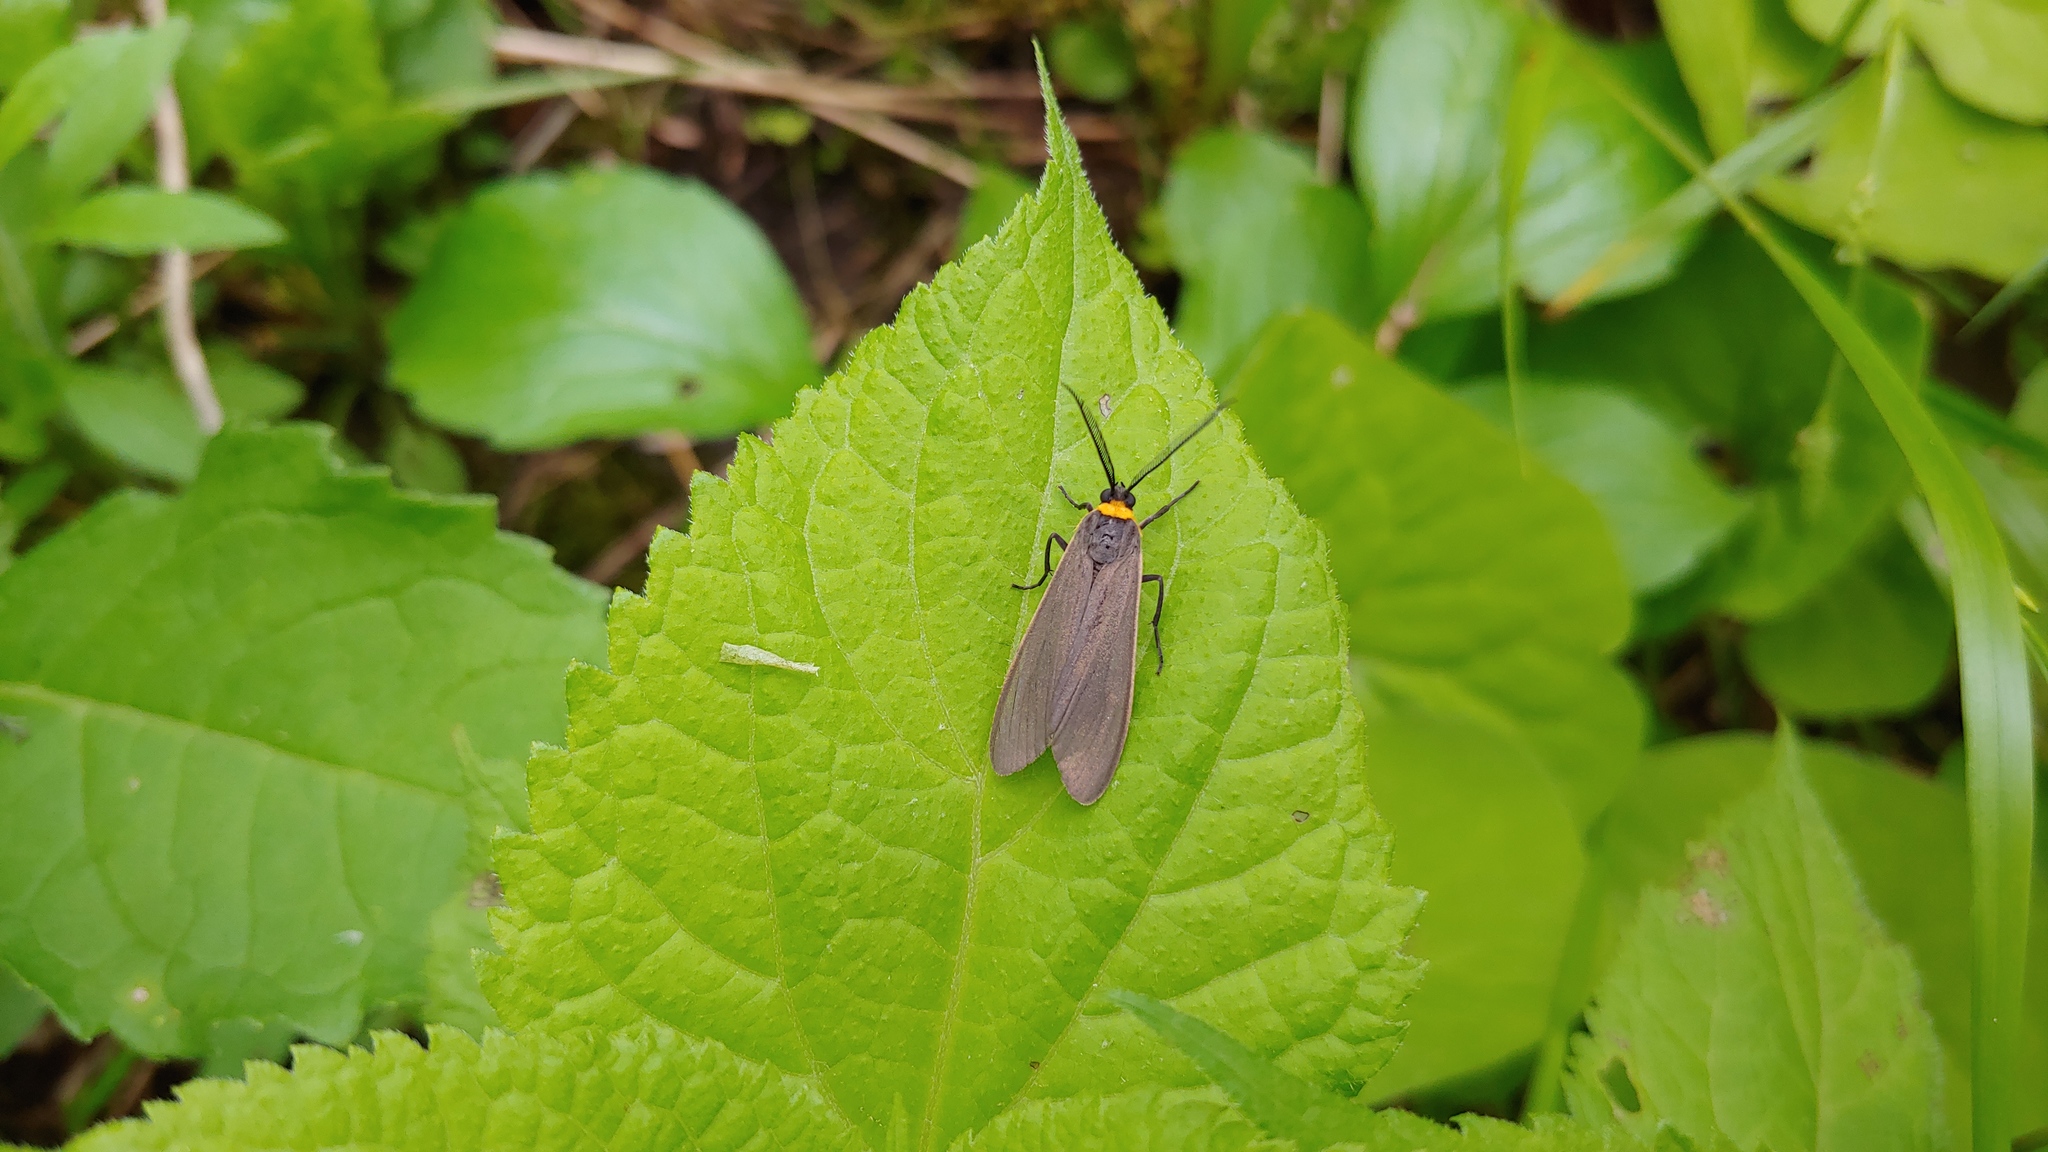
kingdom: Animalia
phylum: Arthropoda
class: Insecta
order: Lepidoptera
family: Erebidae
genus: Cisseps
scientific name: Cisseps fulvicollis
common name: Yellow-collared scape moth
